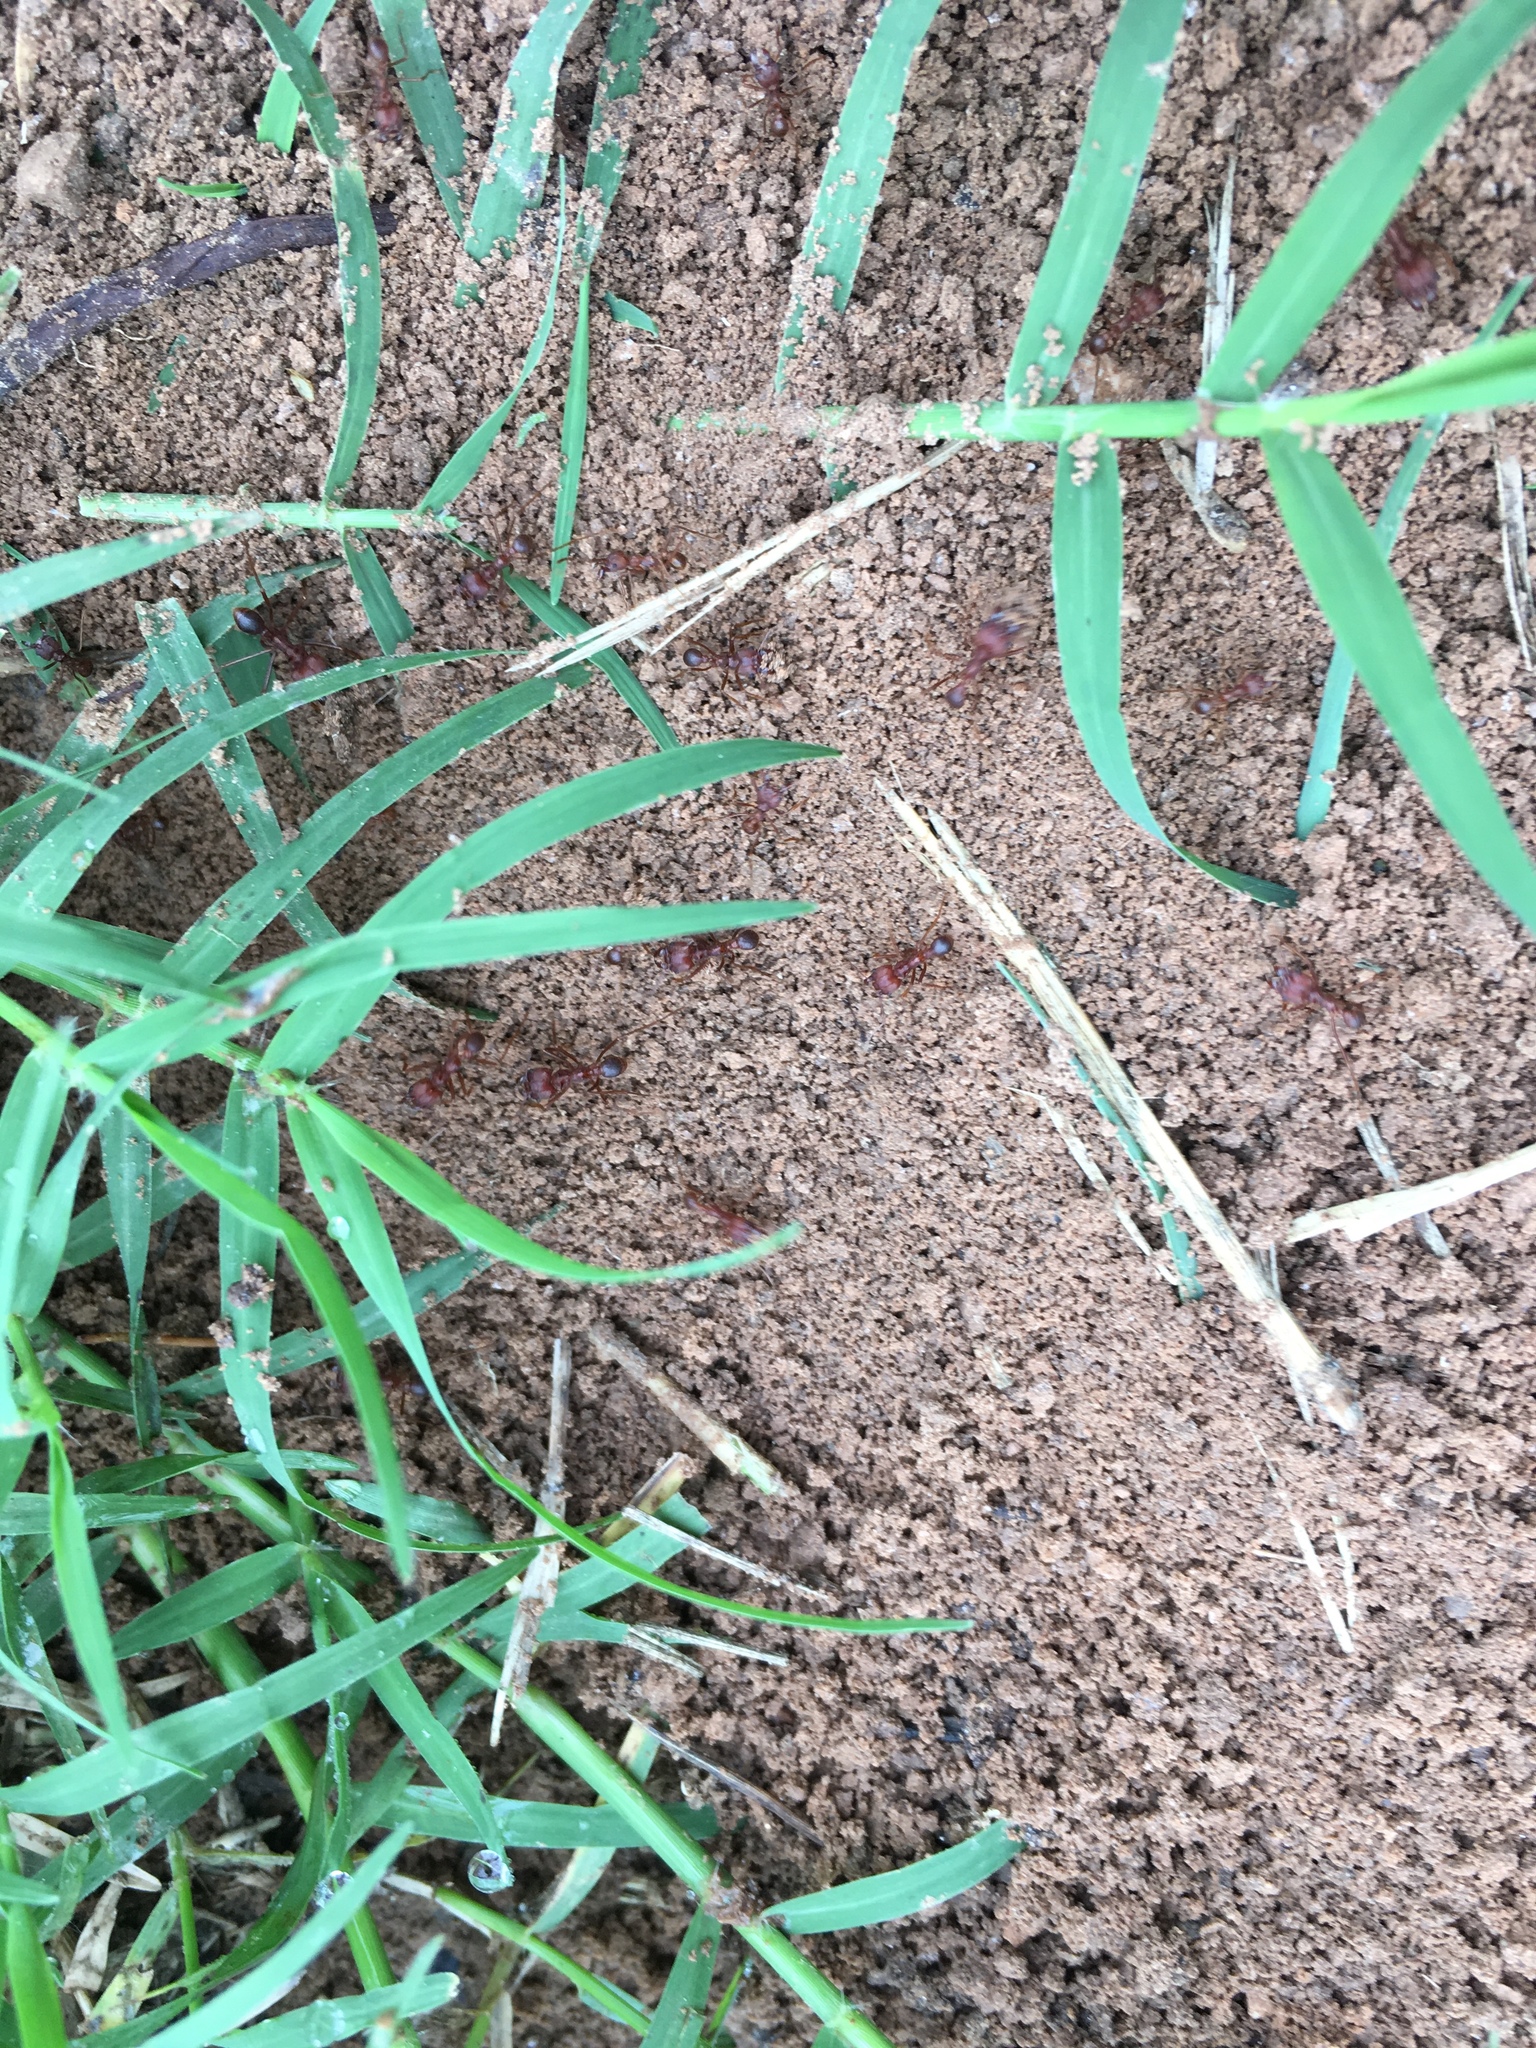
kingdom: Animalia
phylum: Arthropoda
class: Insecta
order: Hymenoptera
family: Formicidae
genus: Atta
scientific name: Atta texana
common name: Texas leafcutting ant
